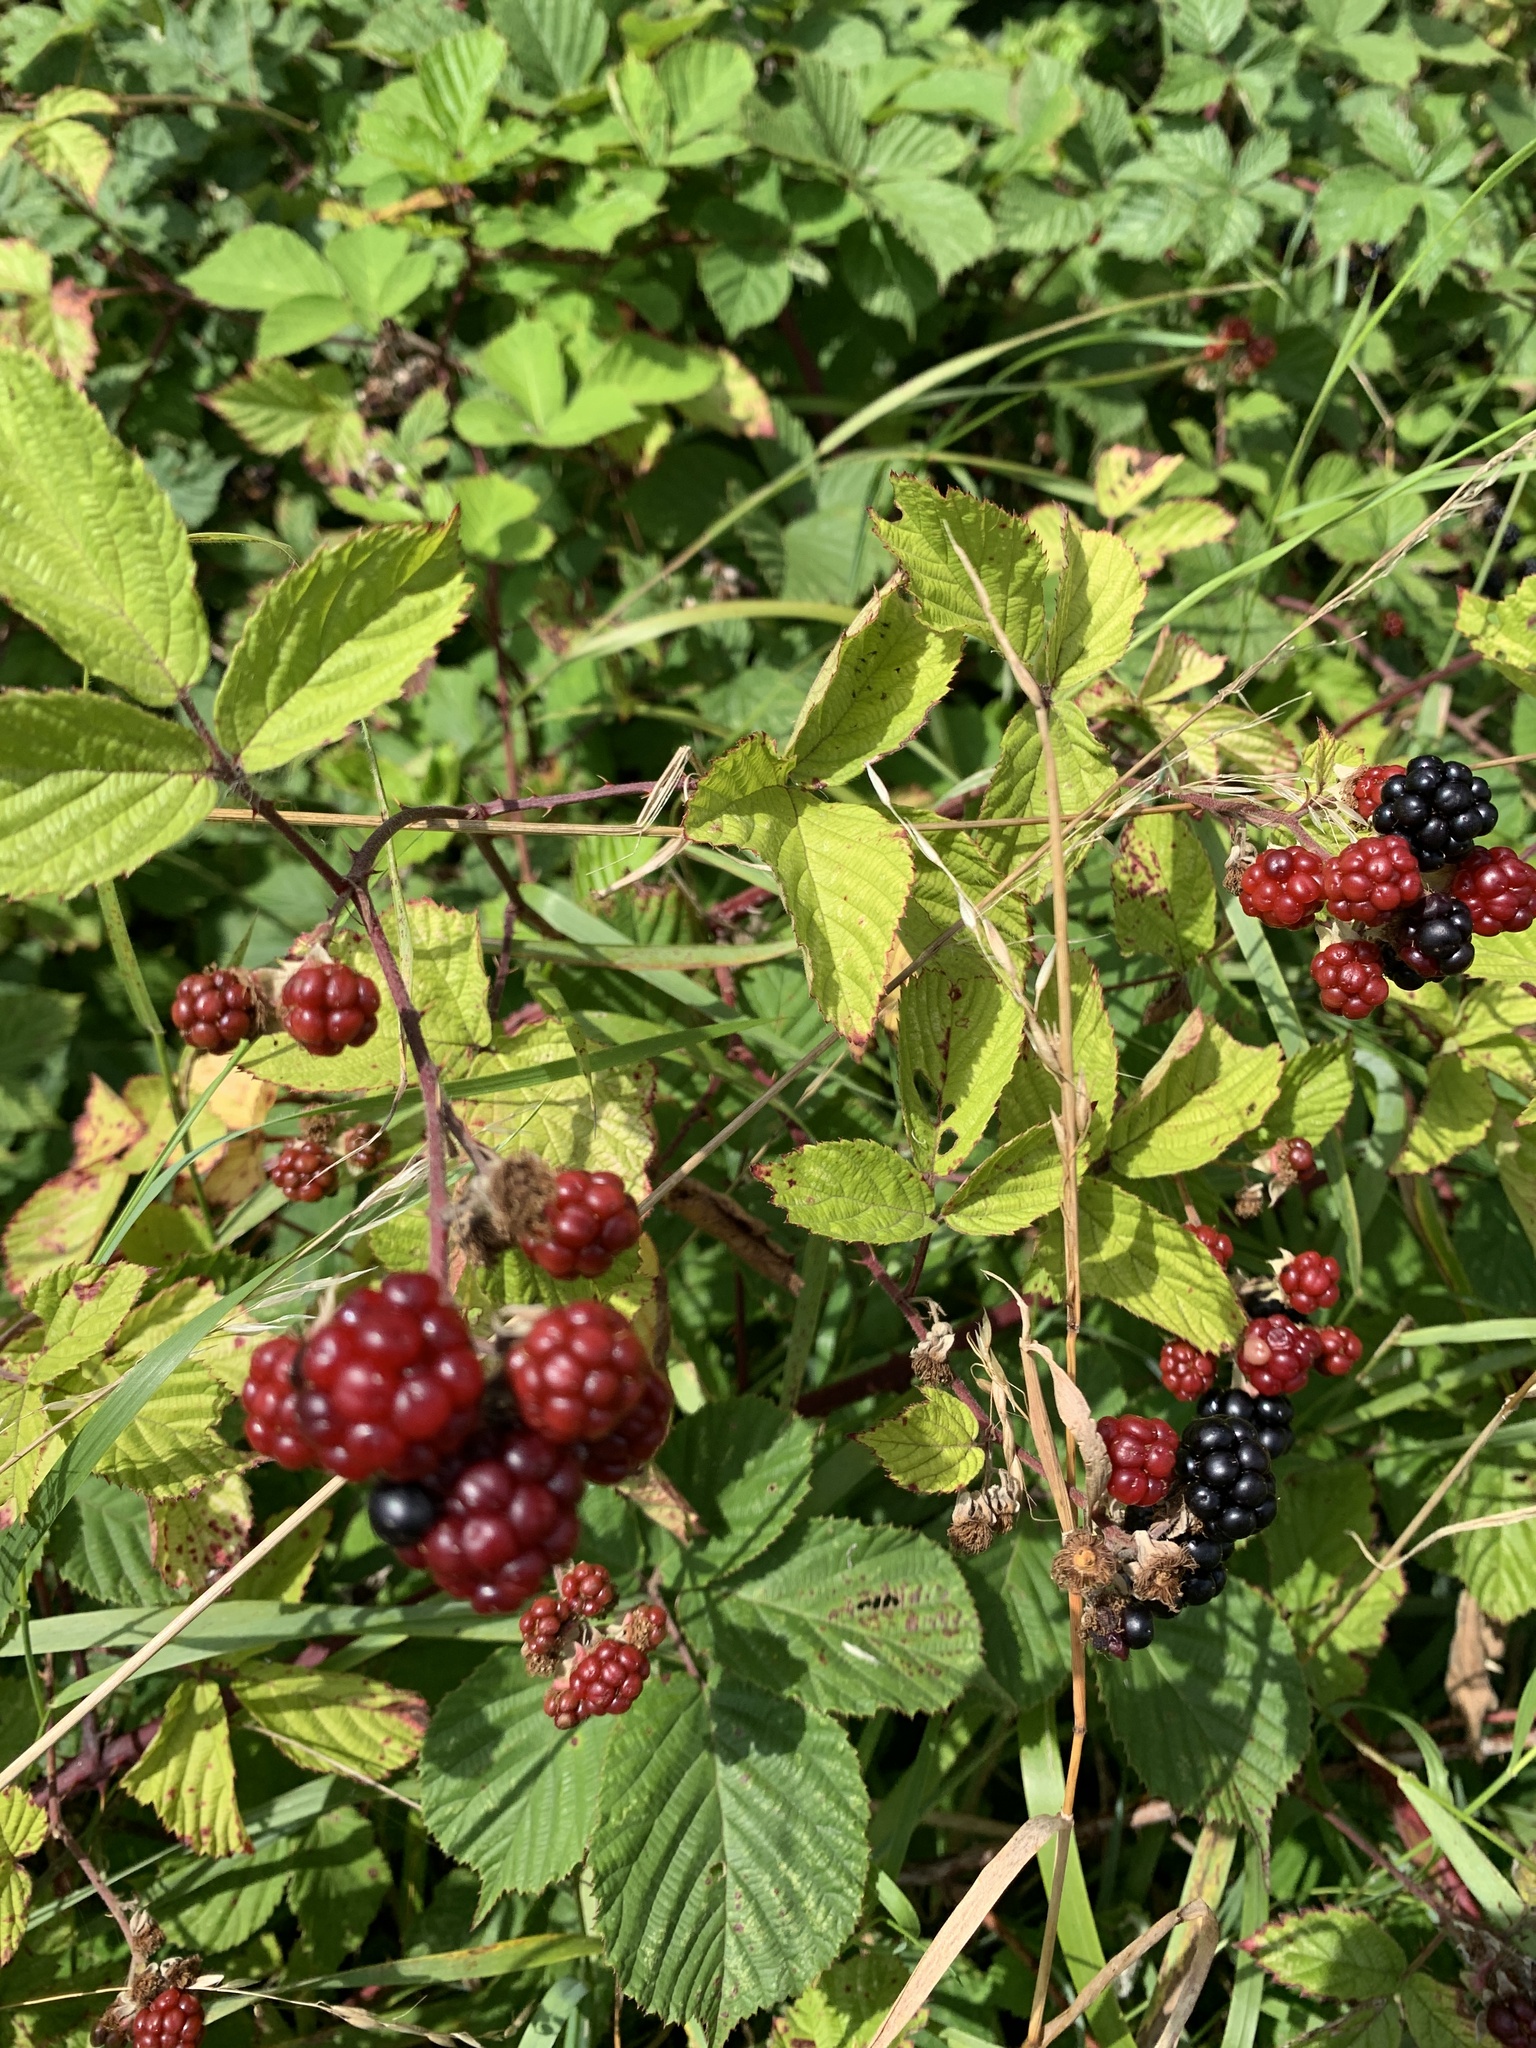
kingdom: Plantae
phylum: Tracheophyta
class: Magnoliopsida
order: Rosales
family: Rosaceae
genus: Rubus
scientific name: Rubus fruticosus
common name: Blackberry, bramble
